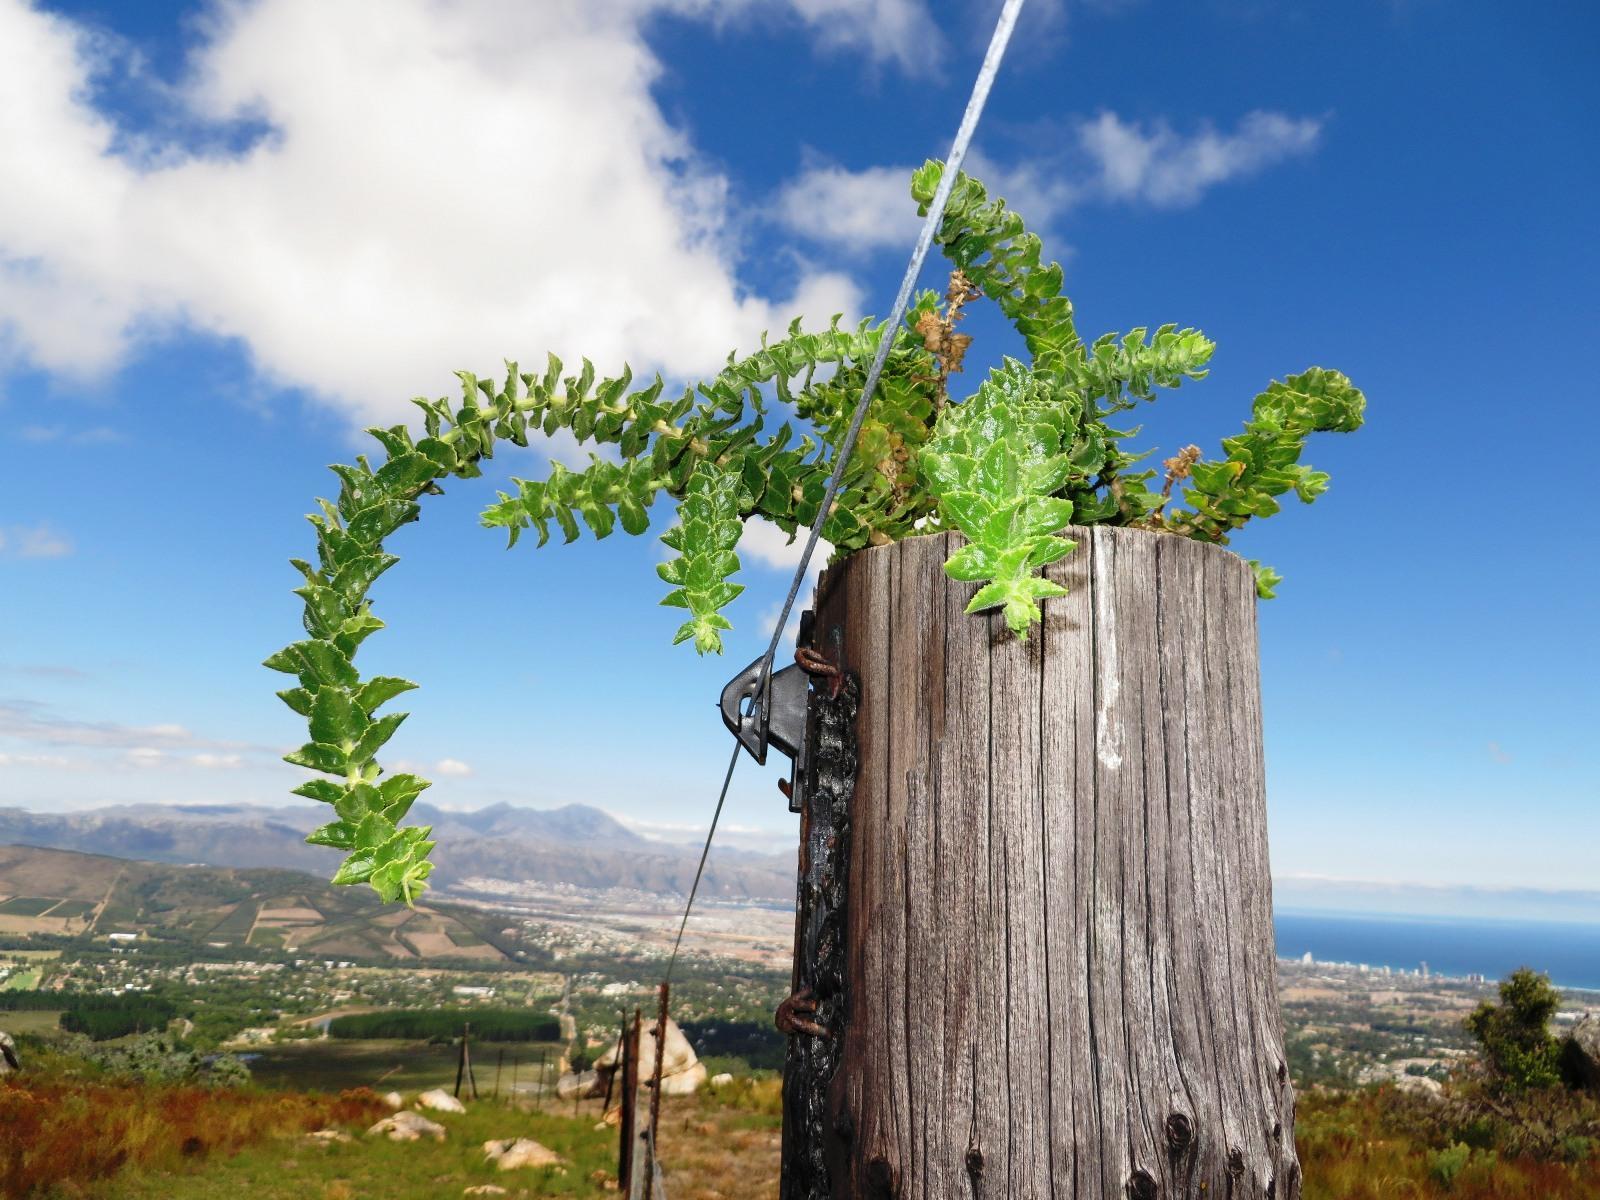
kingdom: Plantae
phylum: Tracheophyta
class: Magnoliopsida
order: Lamiales
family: Scrophulariaceae
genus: Oftia
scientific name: Oftia africana
